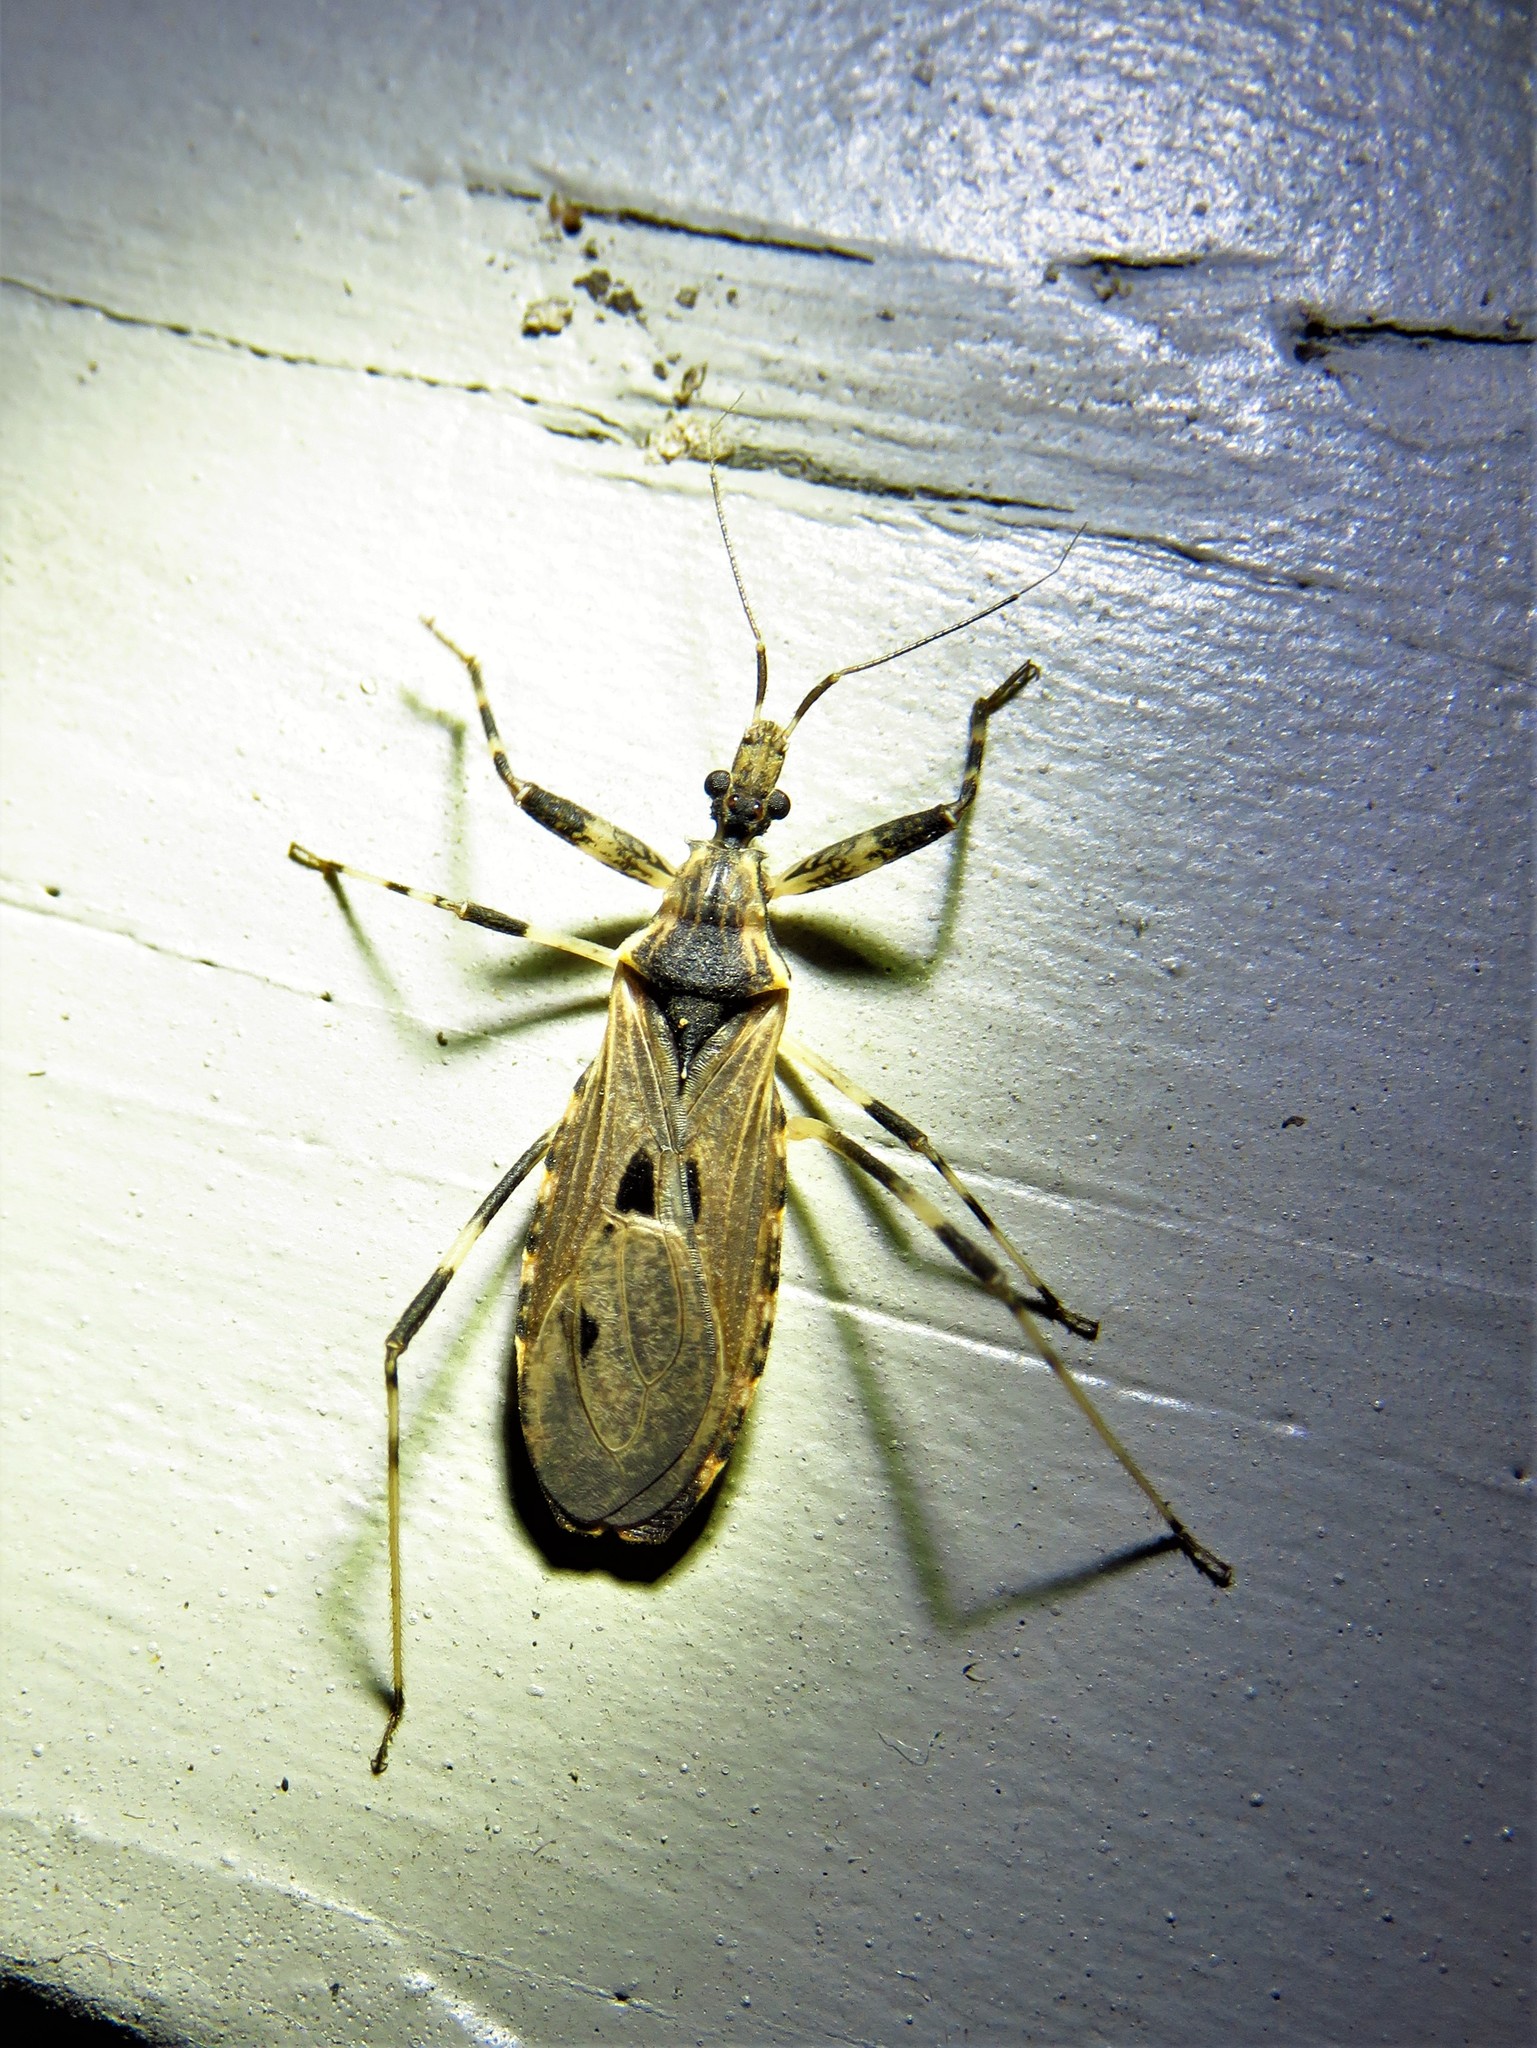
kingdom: Animalia
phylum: Arthropoda
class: Insecta
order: Hemiptera
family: Reduviidae
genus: Oncocephalus
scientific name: Oncocephalus geniculatus
